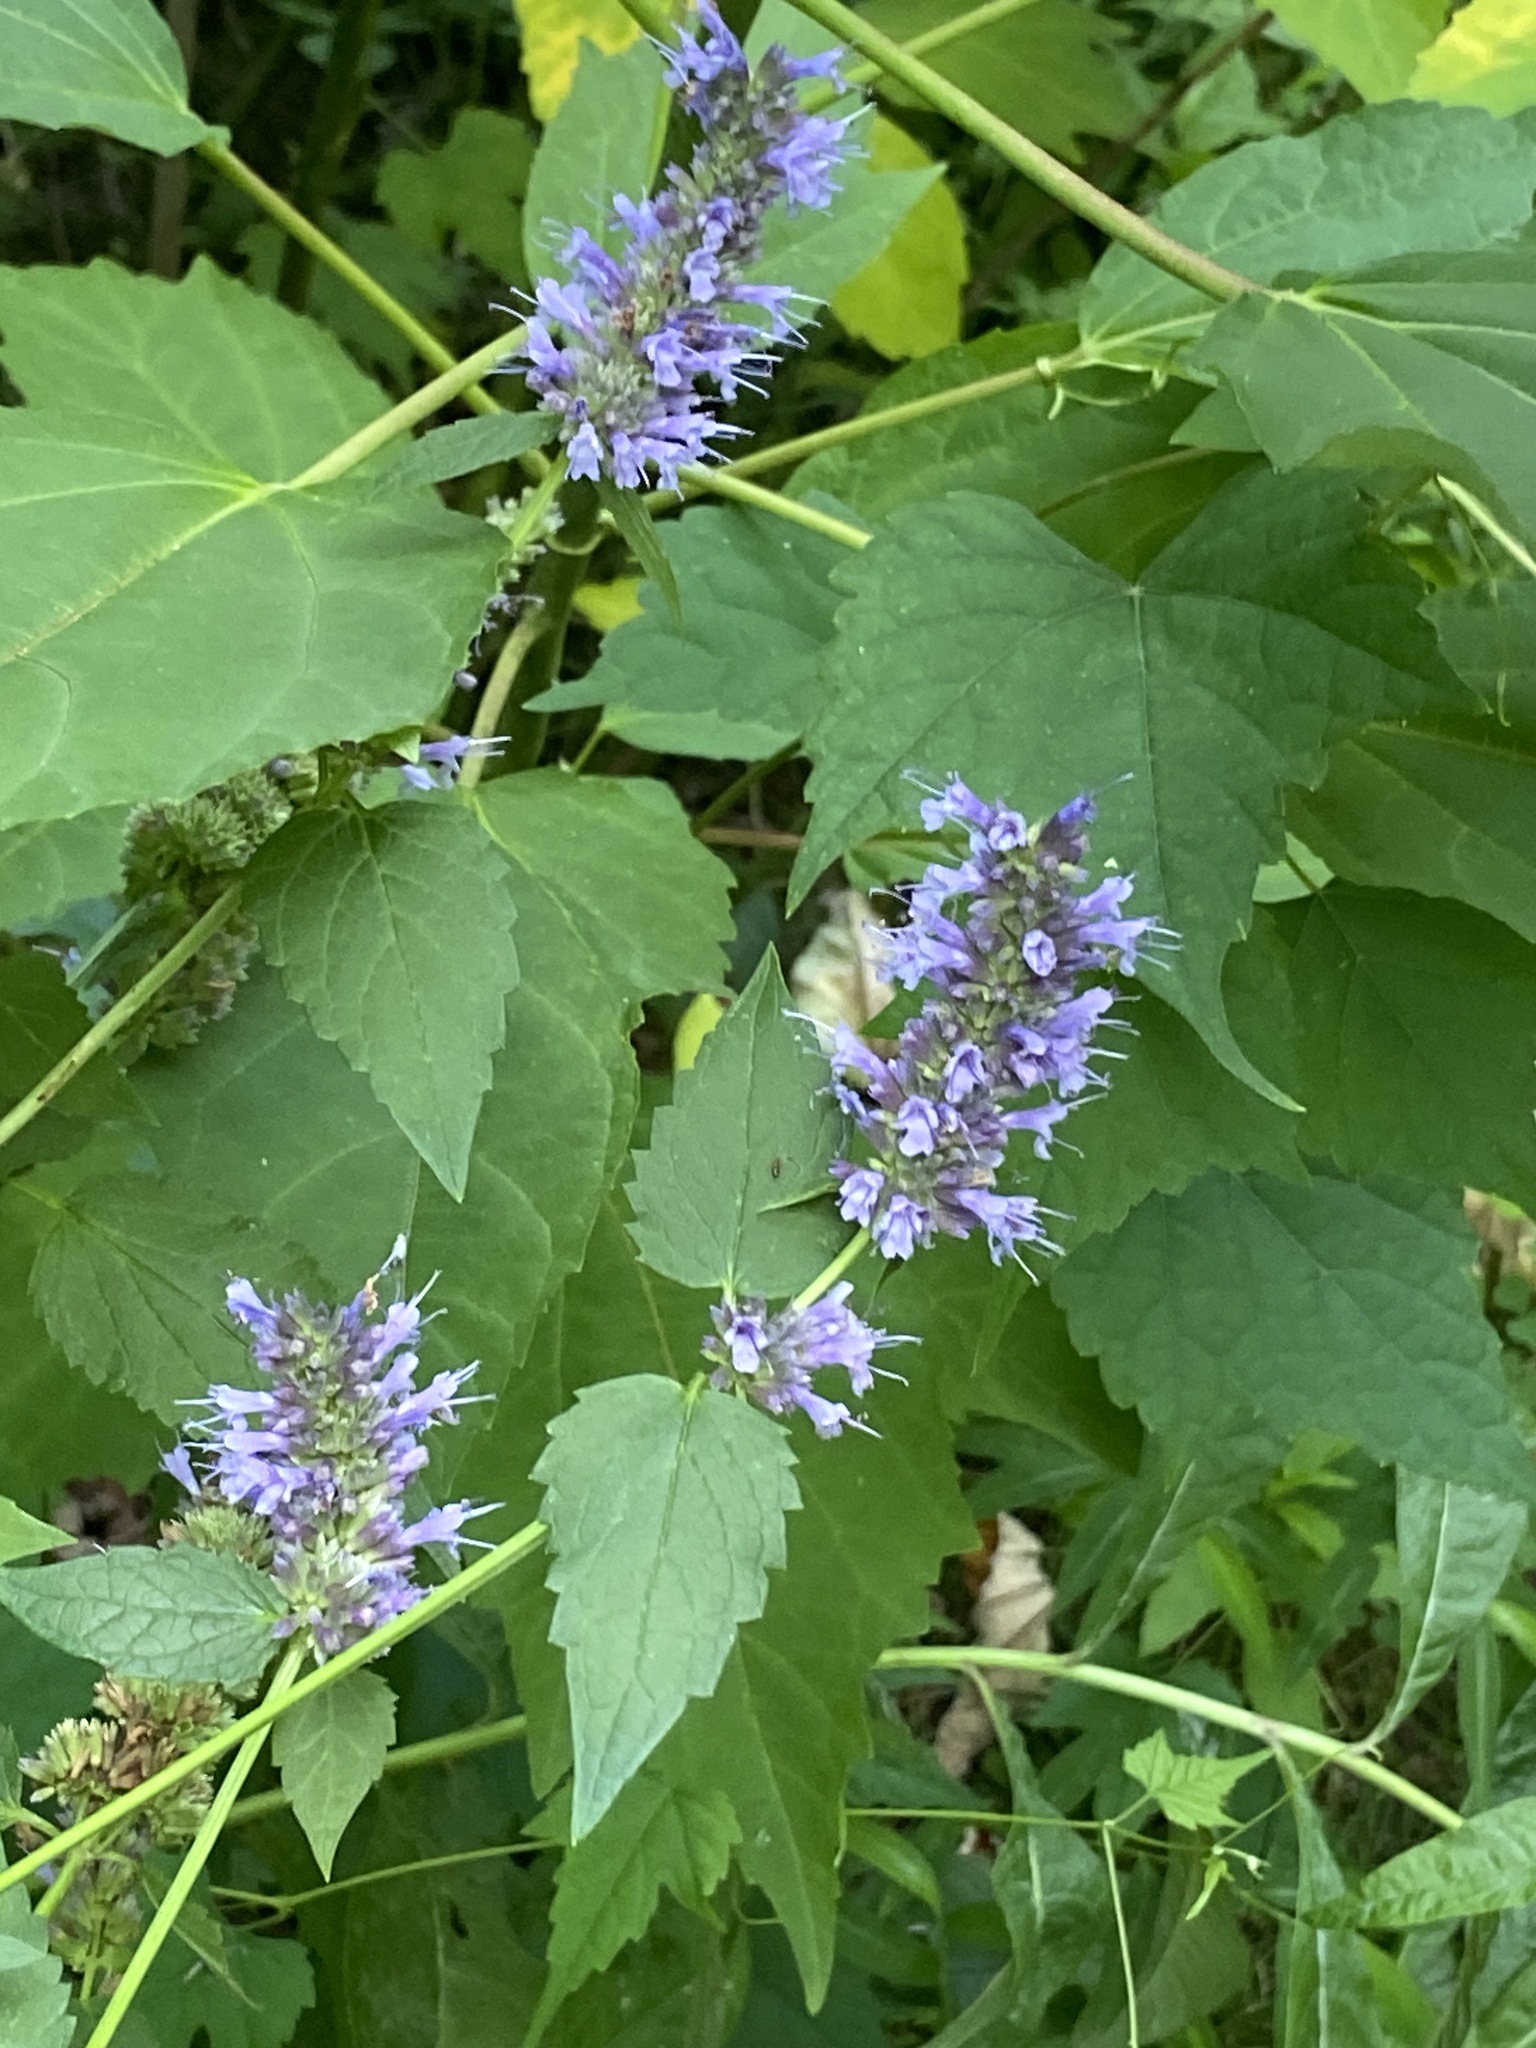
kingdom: Plantae
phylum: Tracheophyta
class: Magnoliopsida
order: Lamiales
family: Lamiaceae
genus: Agastache
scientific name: Agastache foeniculum
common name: Anise hyssop
